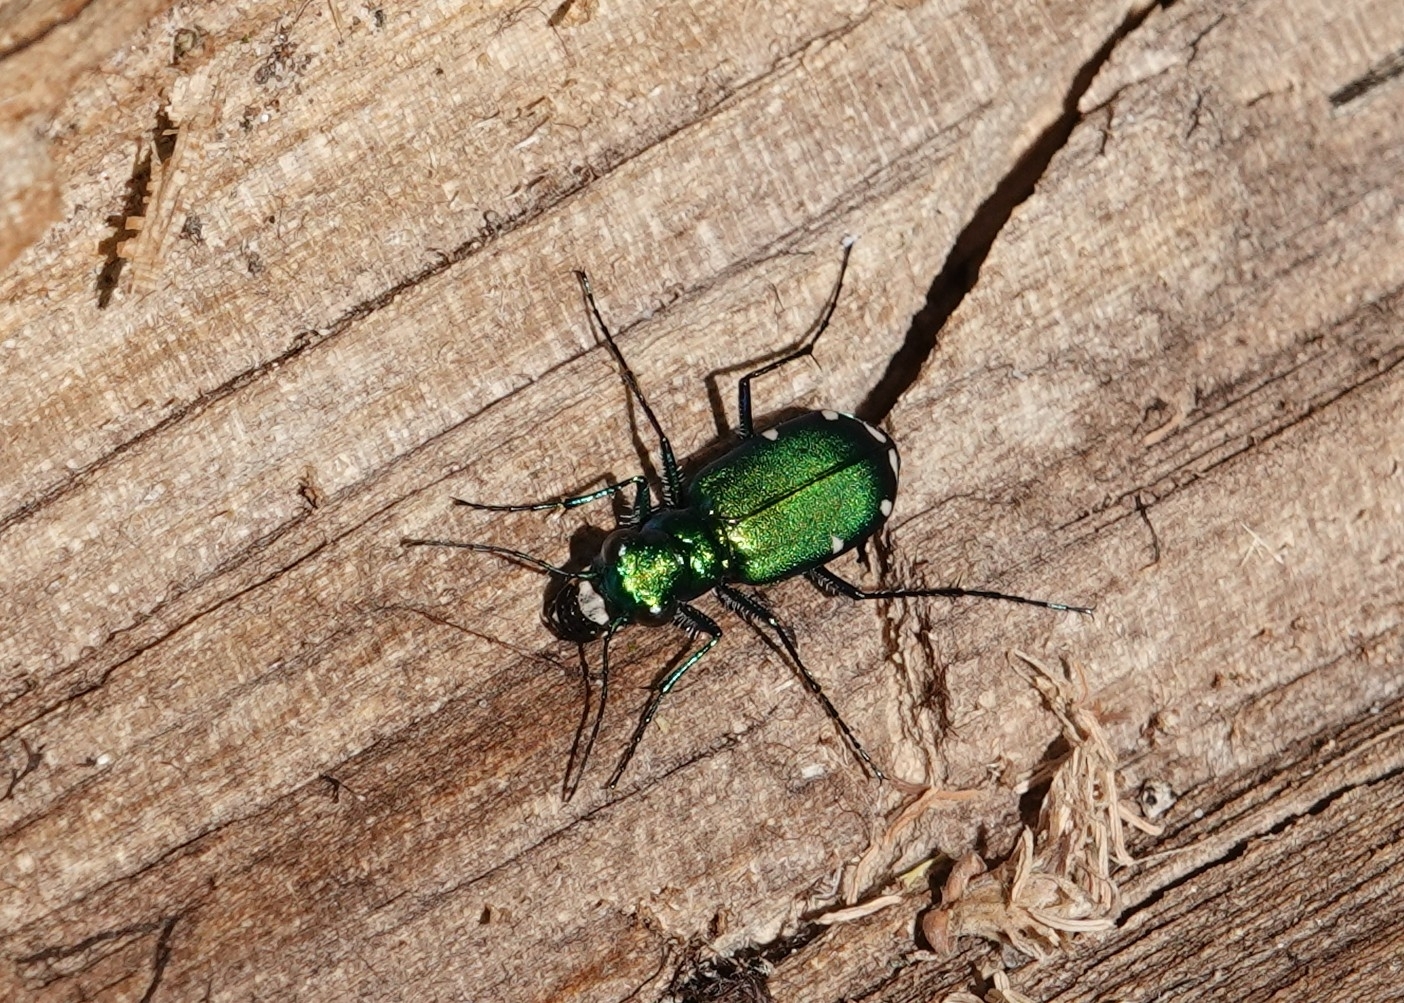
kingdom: Animalia
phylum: Arthropoda
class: Insecta
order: Coleoptera
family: Carabidae
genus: Cicindela
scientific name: Cicindela sexguttata
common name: Six-spotted tiger beetle
